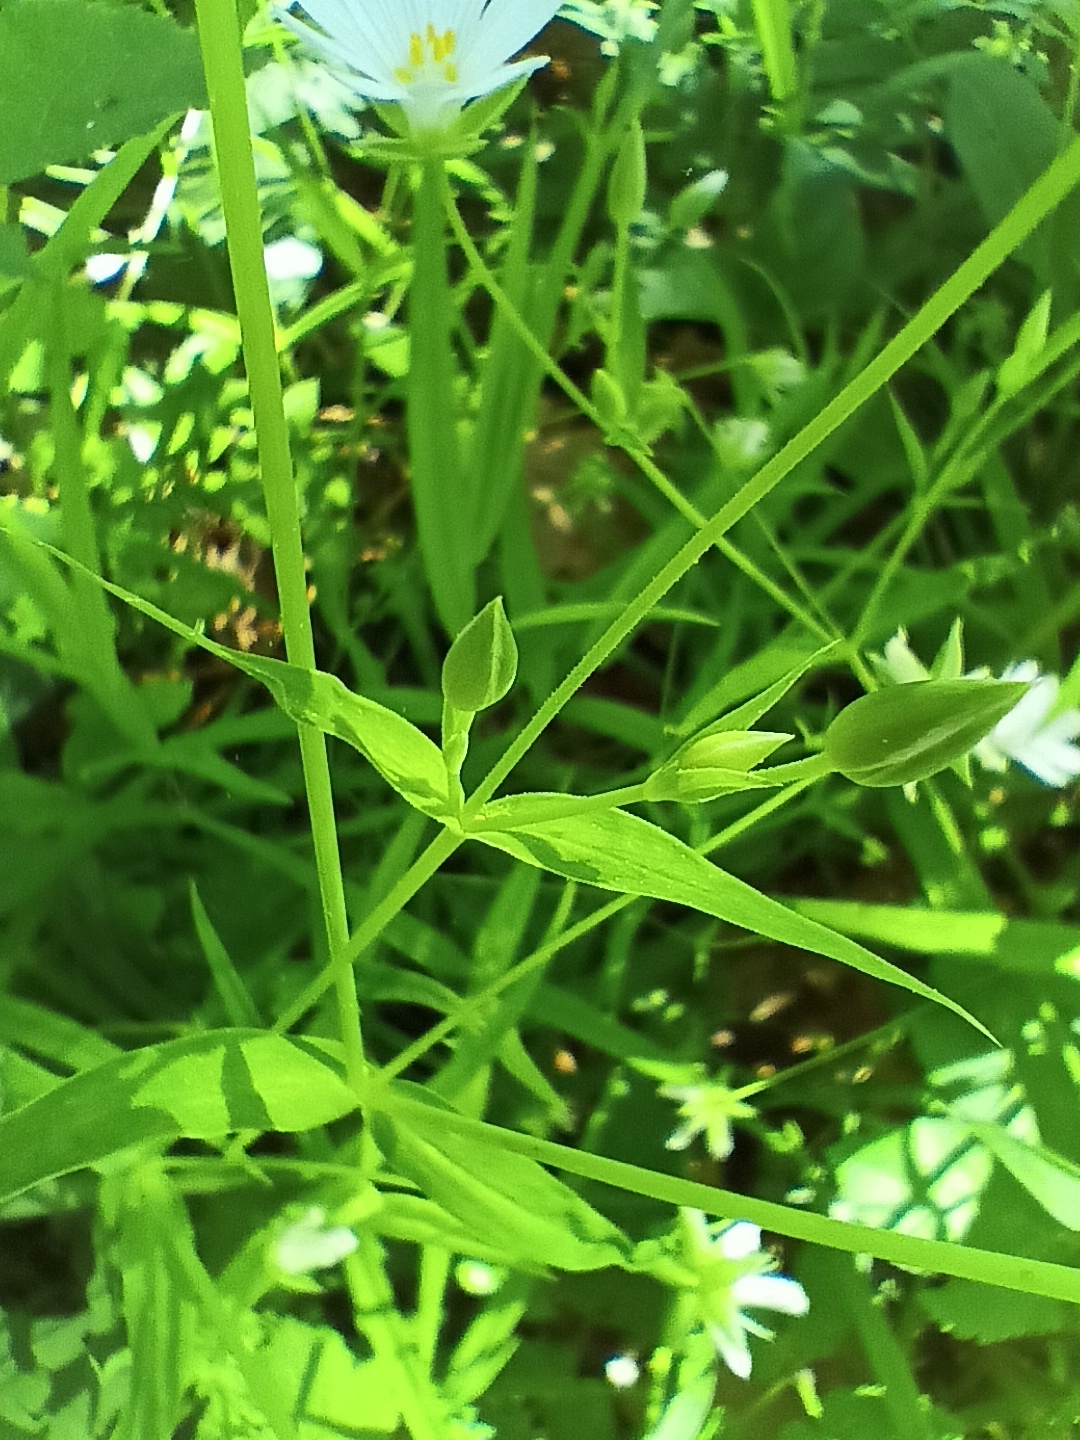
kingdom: Plantae
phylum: Tracheophyta
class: Magnoliopsida
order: Caryophyllales
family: Caryophyllaceae
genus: Rabelera
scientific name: Rabelera holostea
